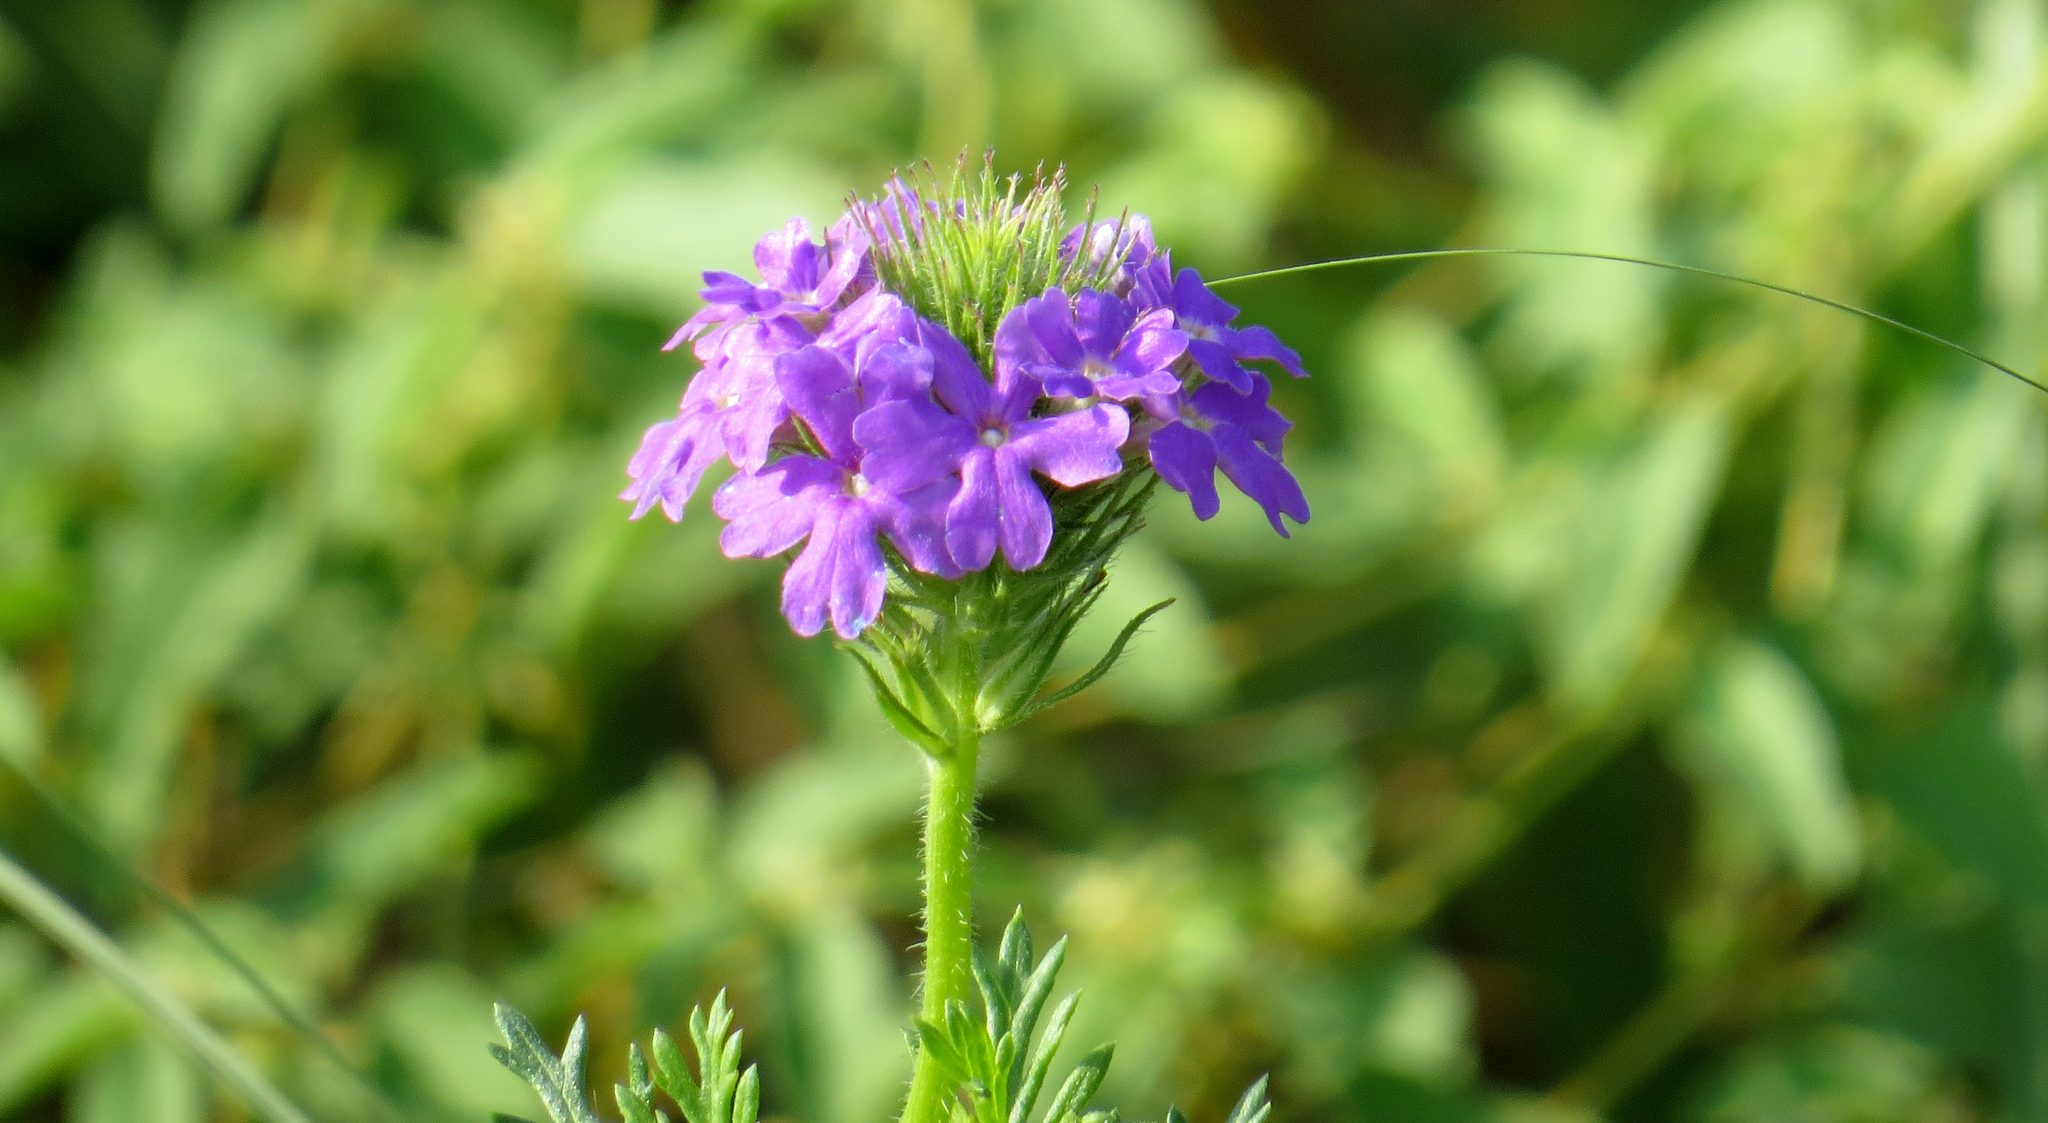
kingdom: Plantae
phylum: Tracheophyta
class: Magnoliopsida
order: Lamiales
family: Verbenaceae
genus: Verbena
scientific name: Verbena bipinnatifida
